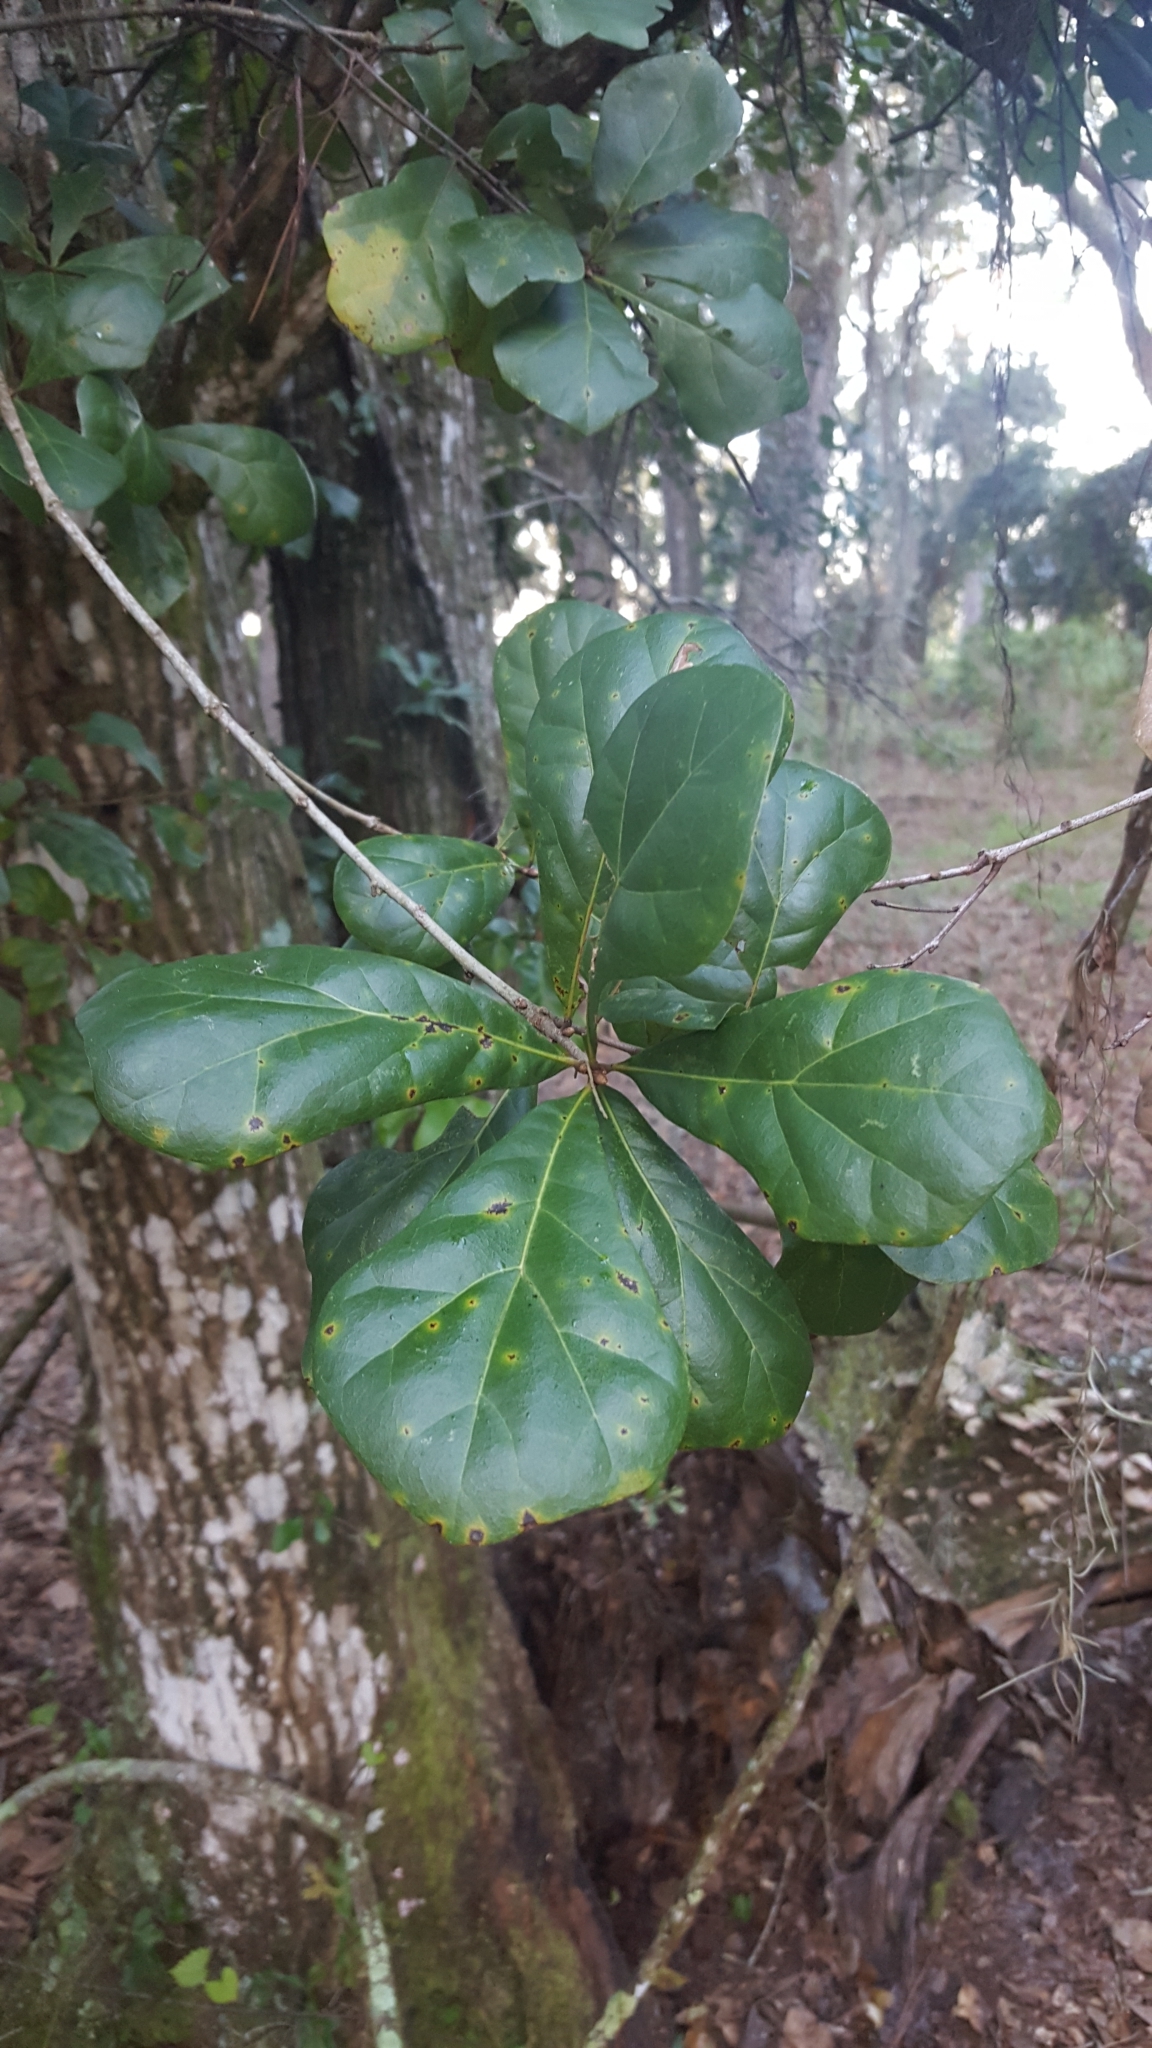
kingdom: Plantae
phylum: Tracheophyta
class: Magnoliopsida
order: Fagales
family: Fagaceae
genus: Quercus
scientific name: Quercus nigra
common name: Water oak
